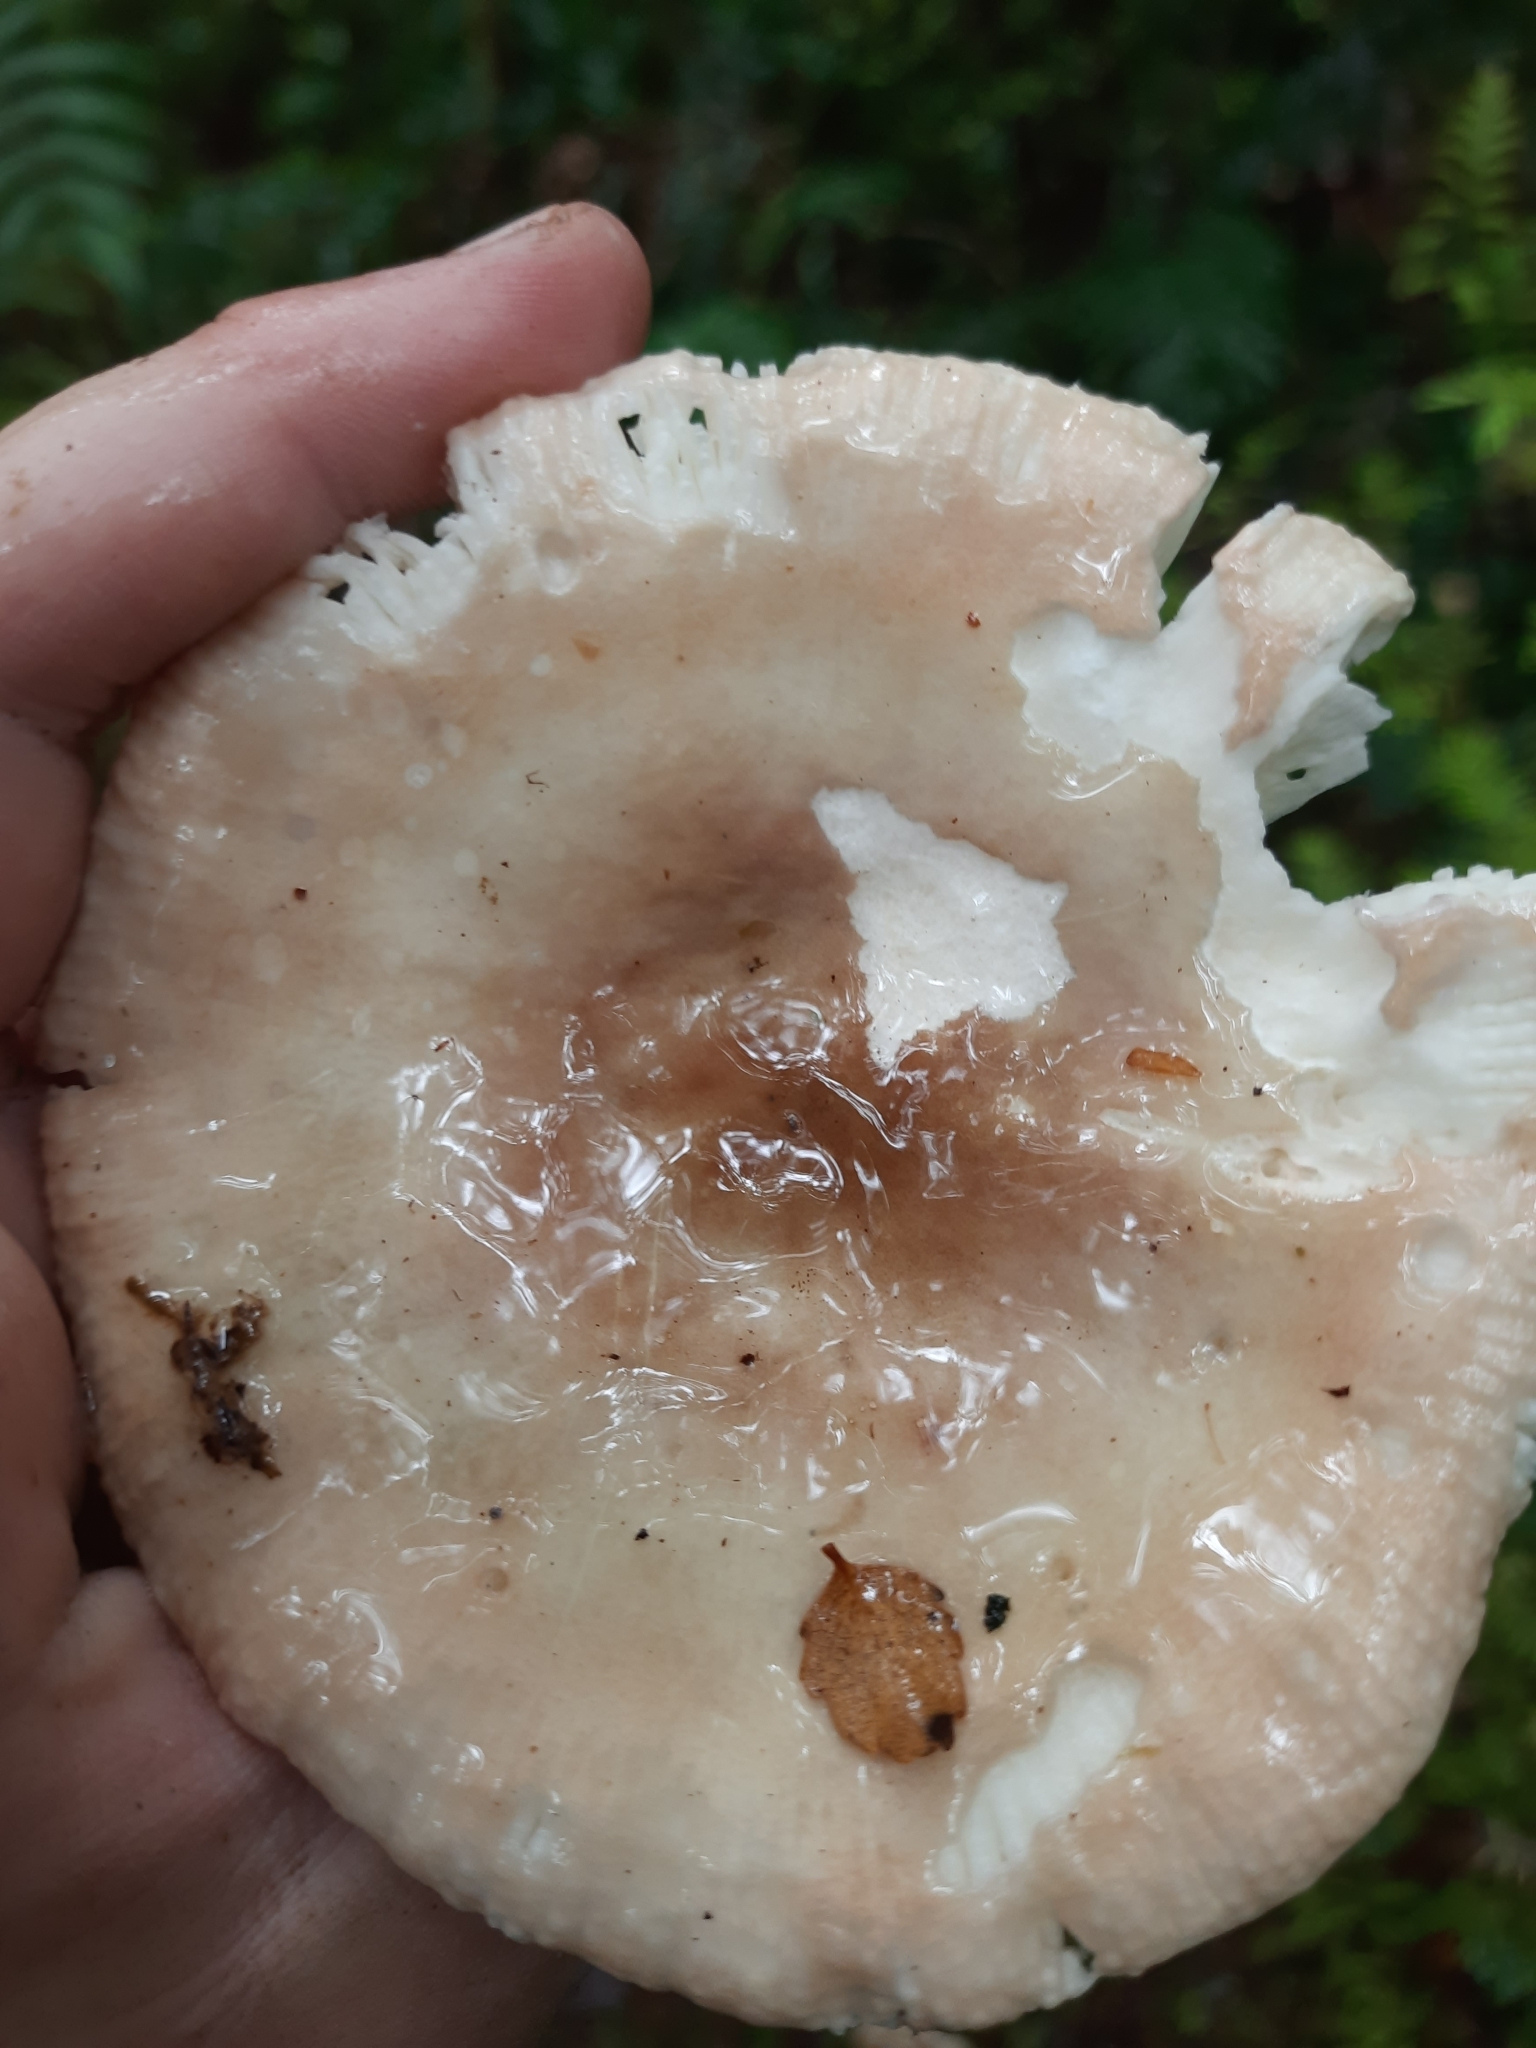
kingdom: Fungi
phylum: Basidiomycota
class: Agaricomycetes
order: Russulales
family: Russulaceae
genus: Russula
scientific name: Russula purpureotincta
